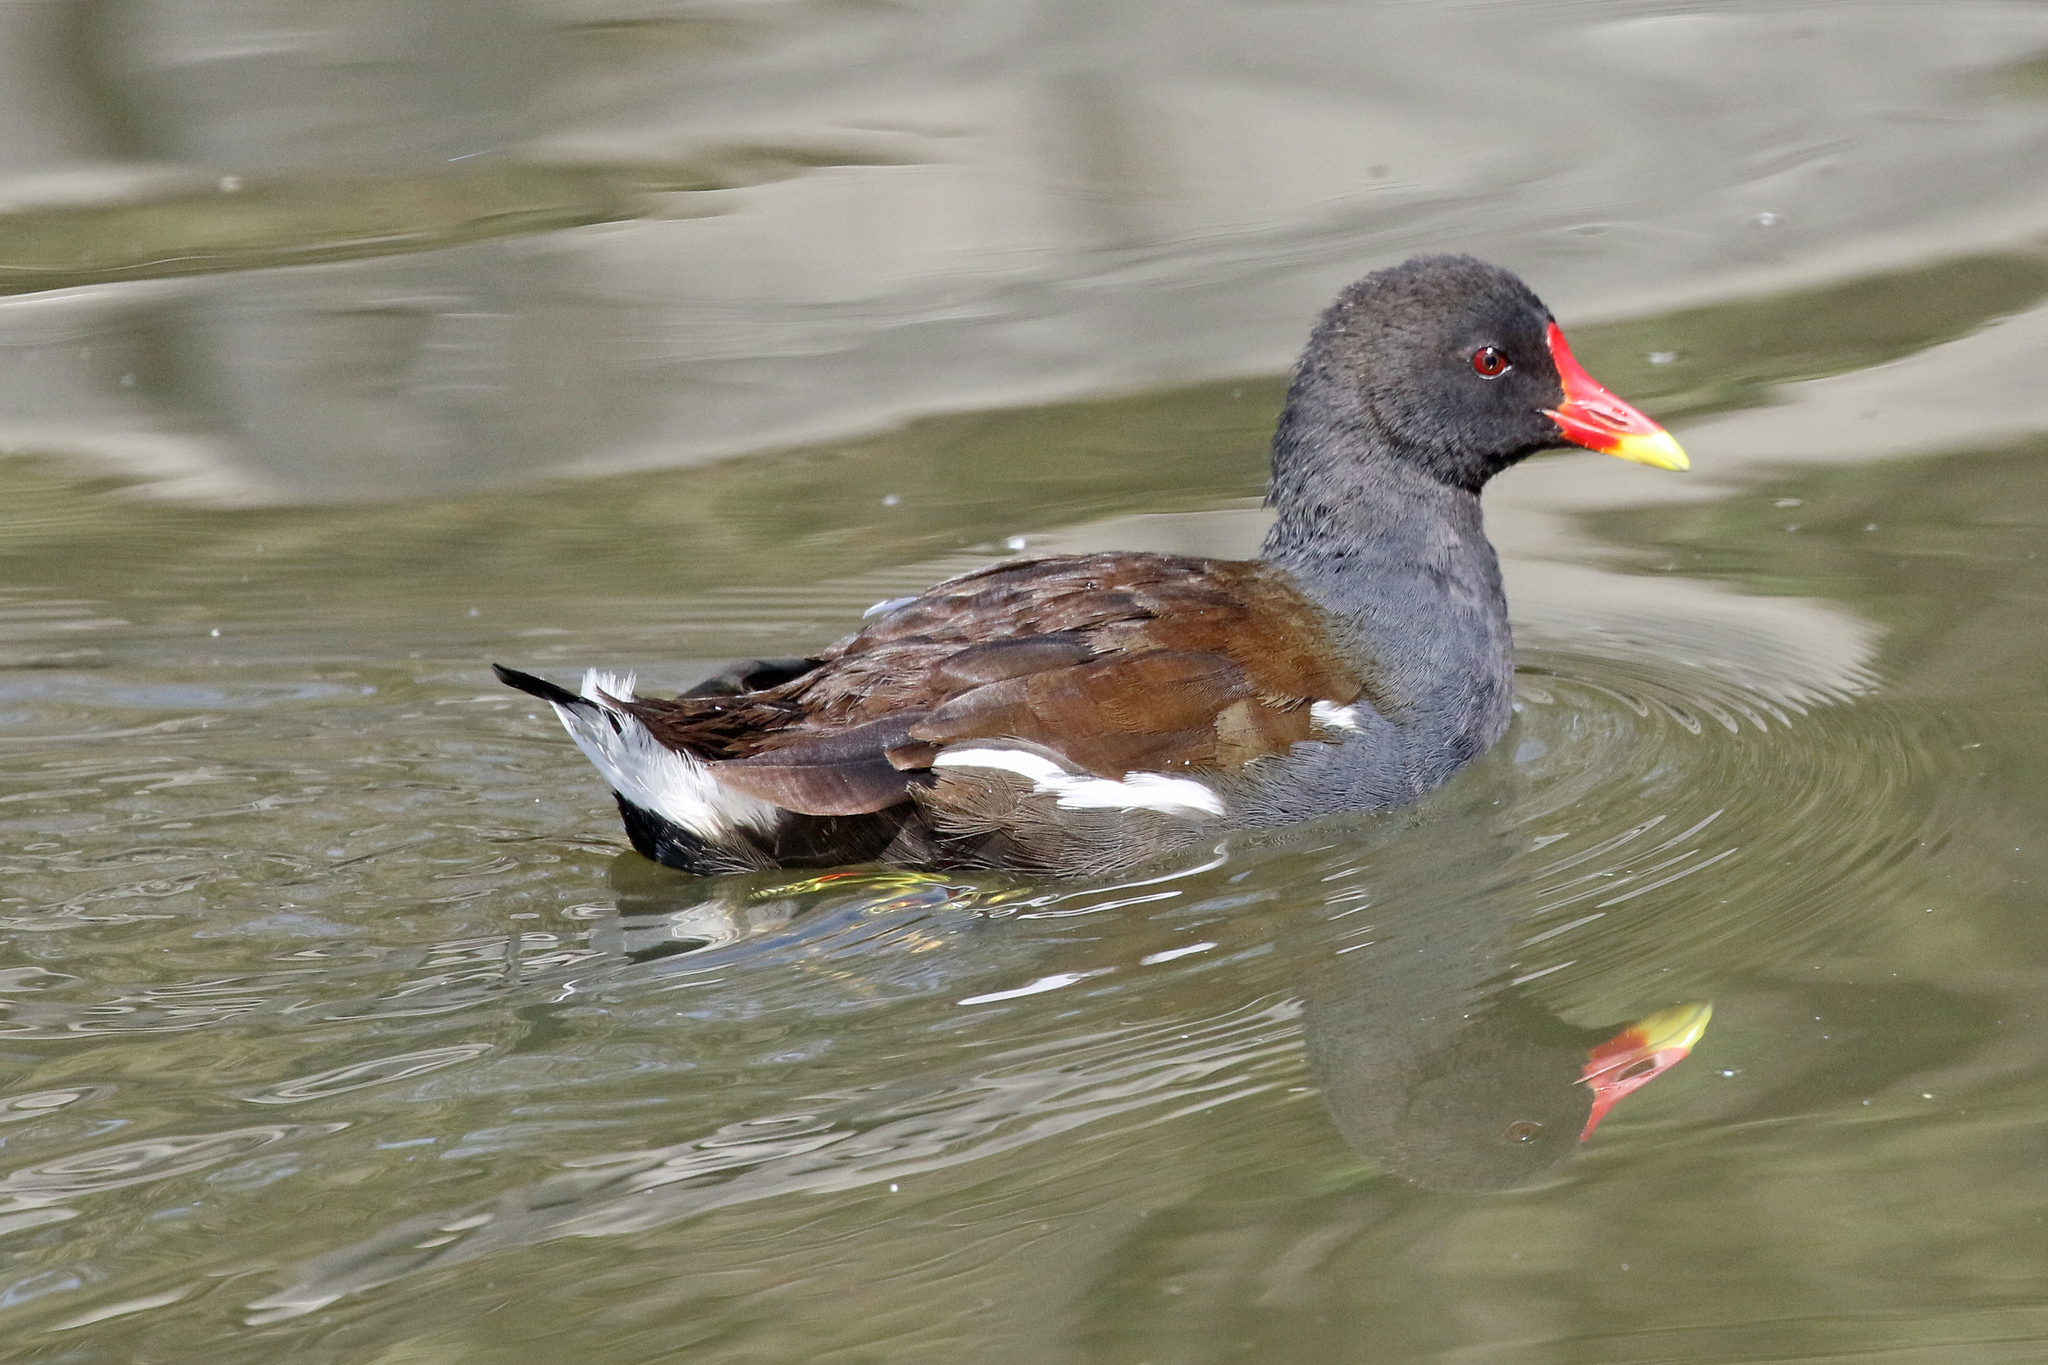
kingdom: Animalia
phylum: Chordata
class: Aves
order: Gruiformes
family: Rallidae
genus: Gallinula
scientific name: Gallinula chloropus
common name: Common moorhen
